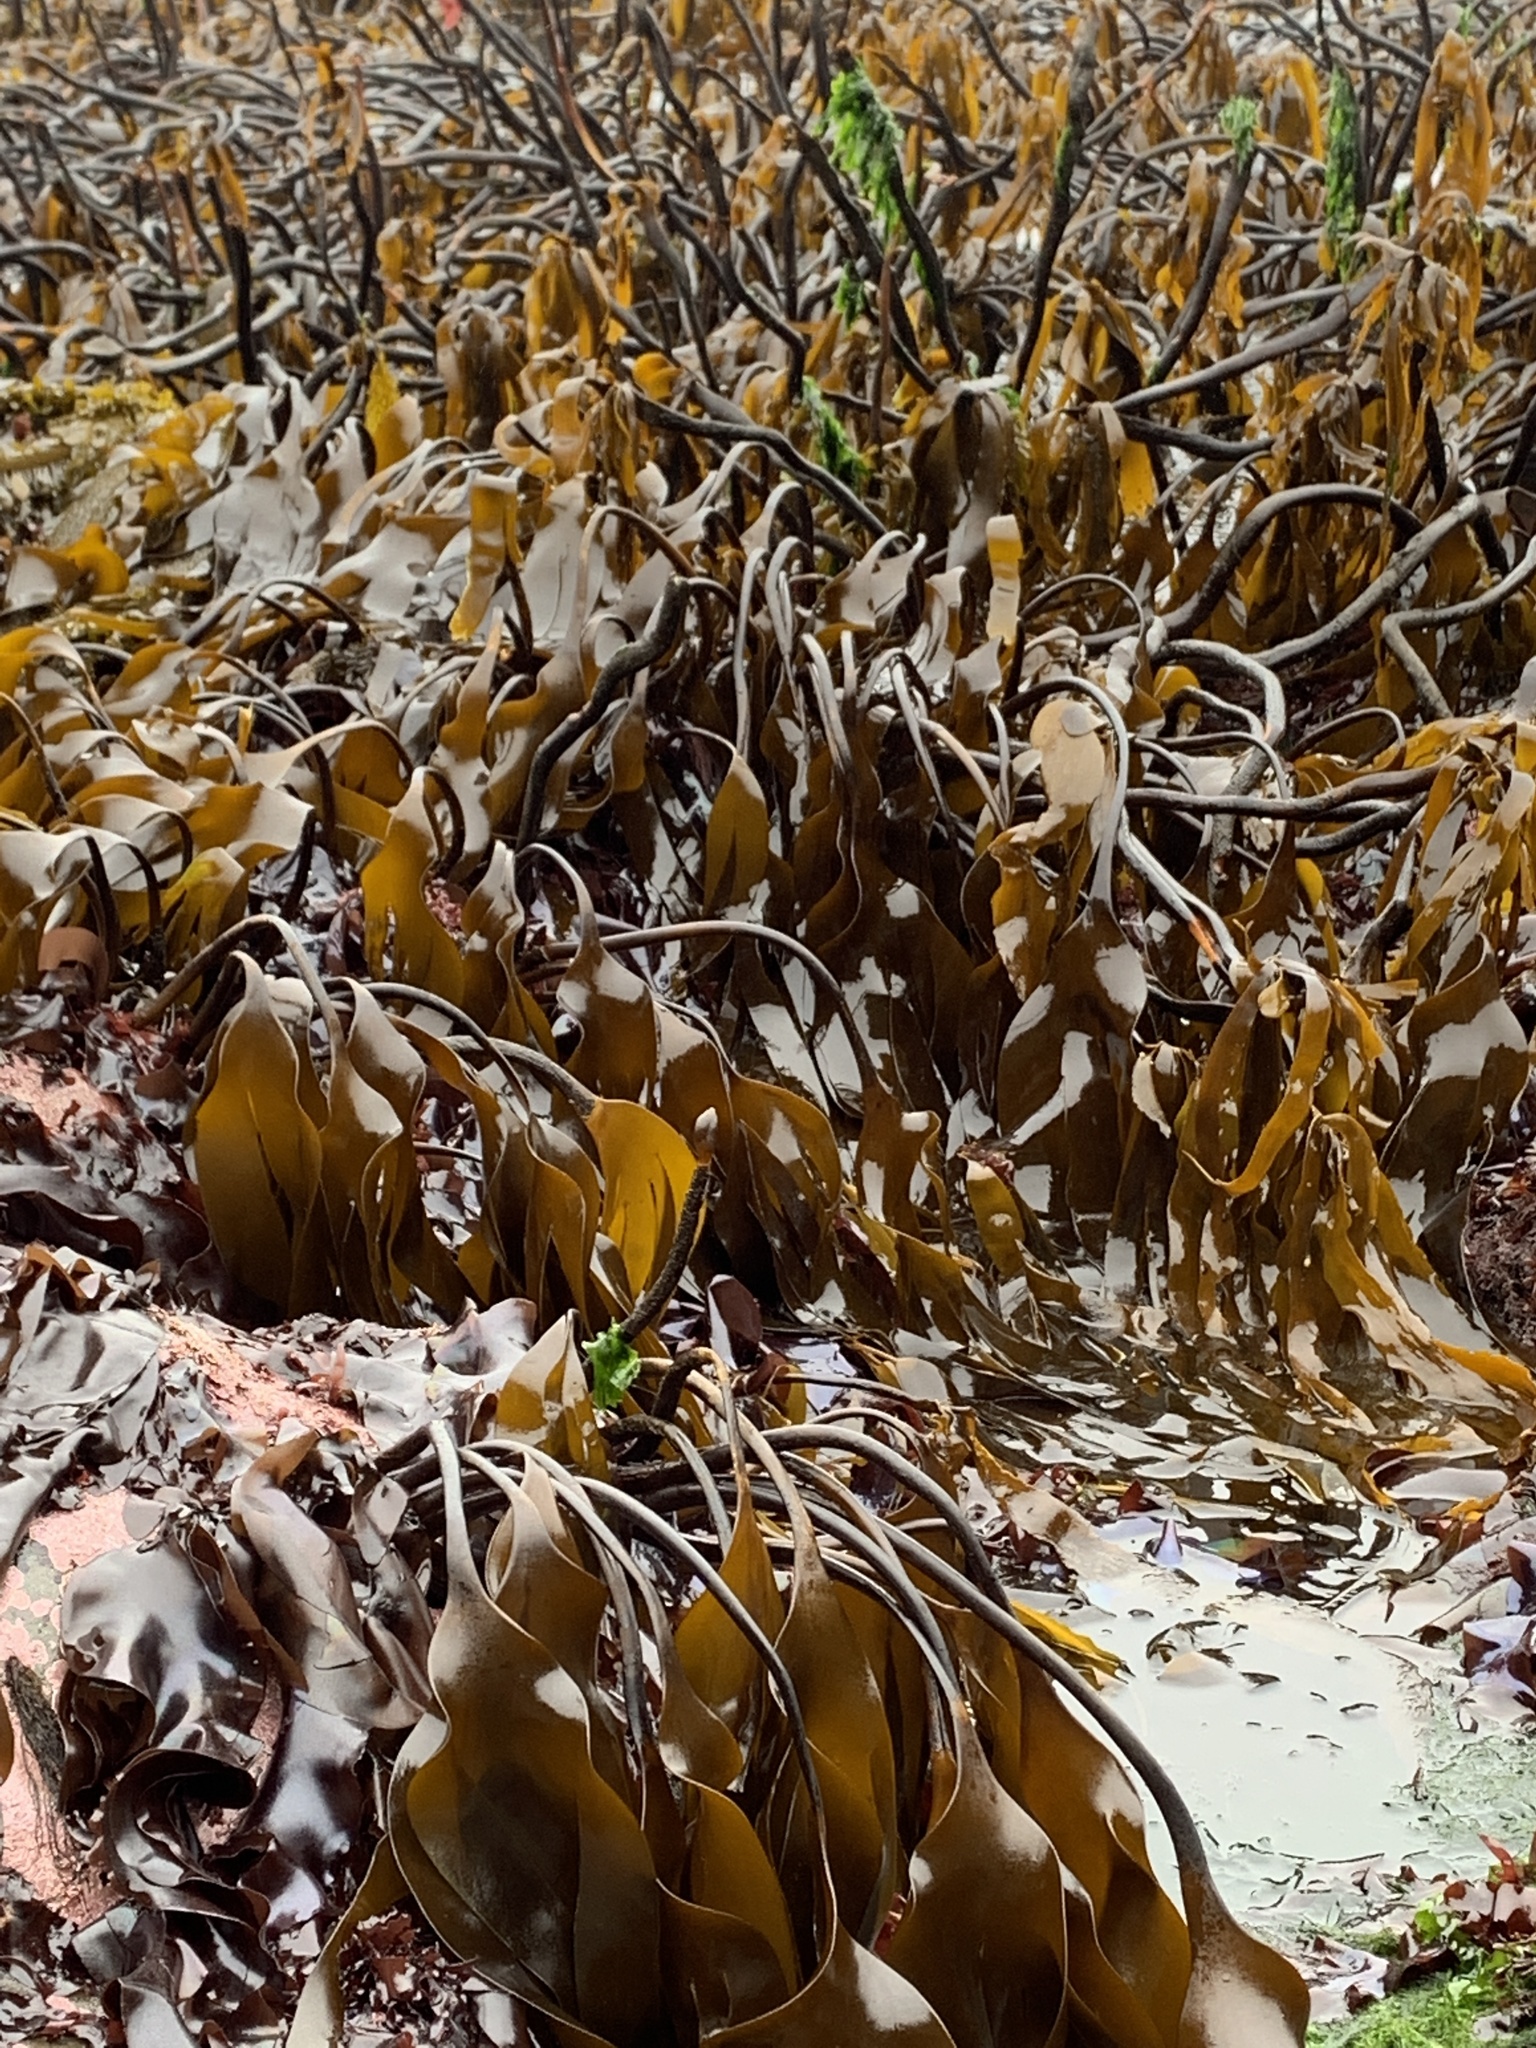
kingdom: Chromista
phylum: Ochrophyta
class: Phaeophyceae
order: Laminariales
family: Laminariaceae
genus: Laminaria
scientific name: Laminaria sinclairii
